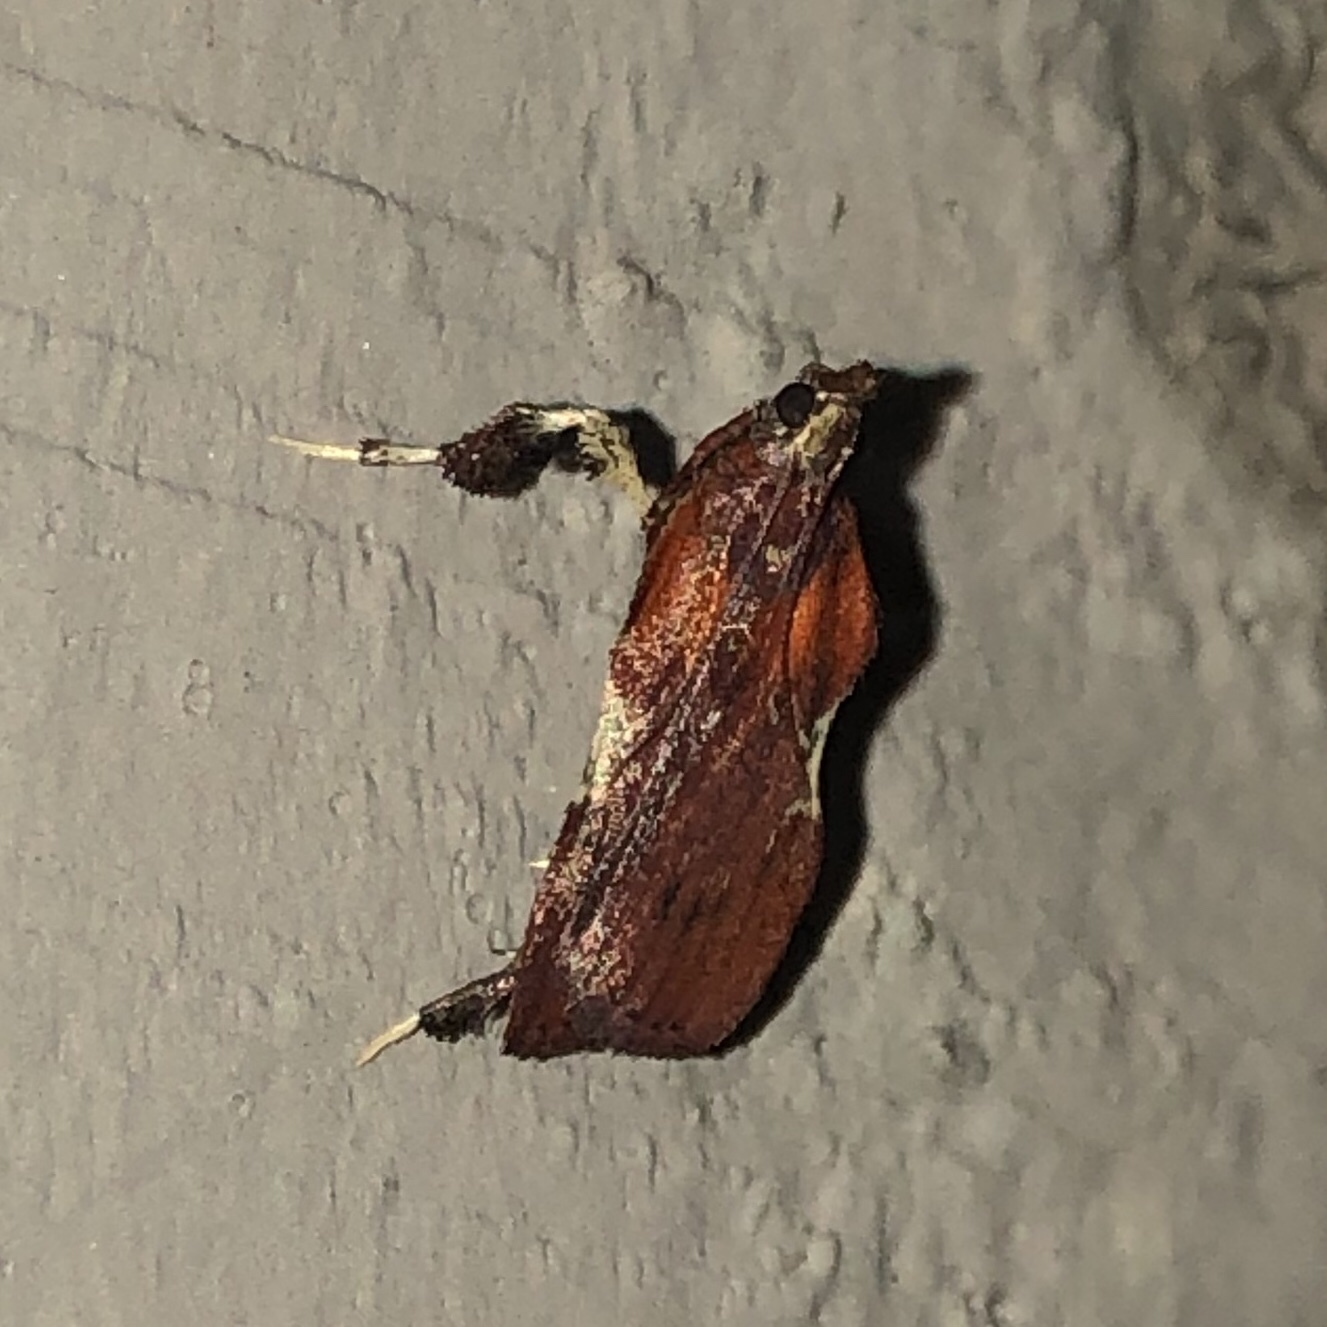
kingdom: Animalia
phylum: Arthropoda
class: Insecta
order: Lepidoptera
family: Pyralidae
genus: Galasa
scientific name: Galasa nigrinodis
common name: Boxwood leaftier moth
